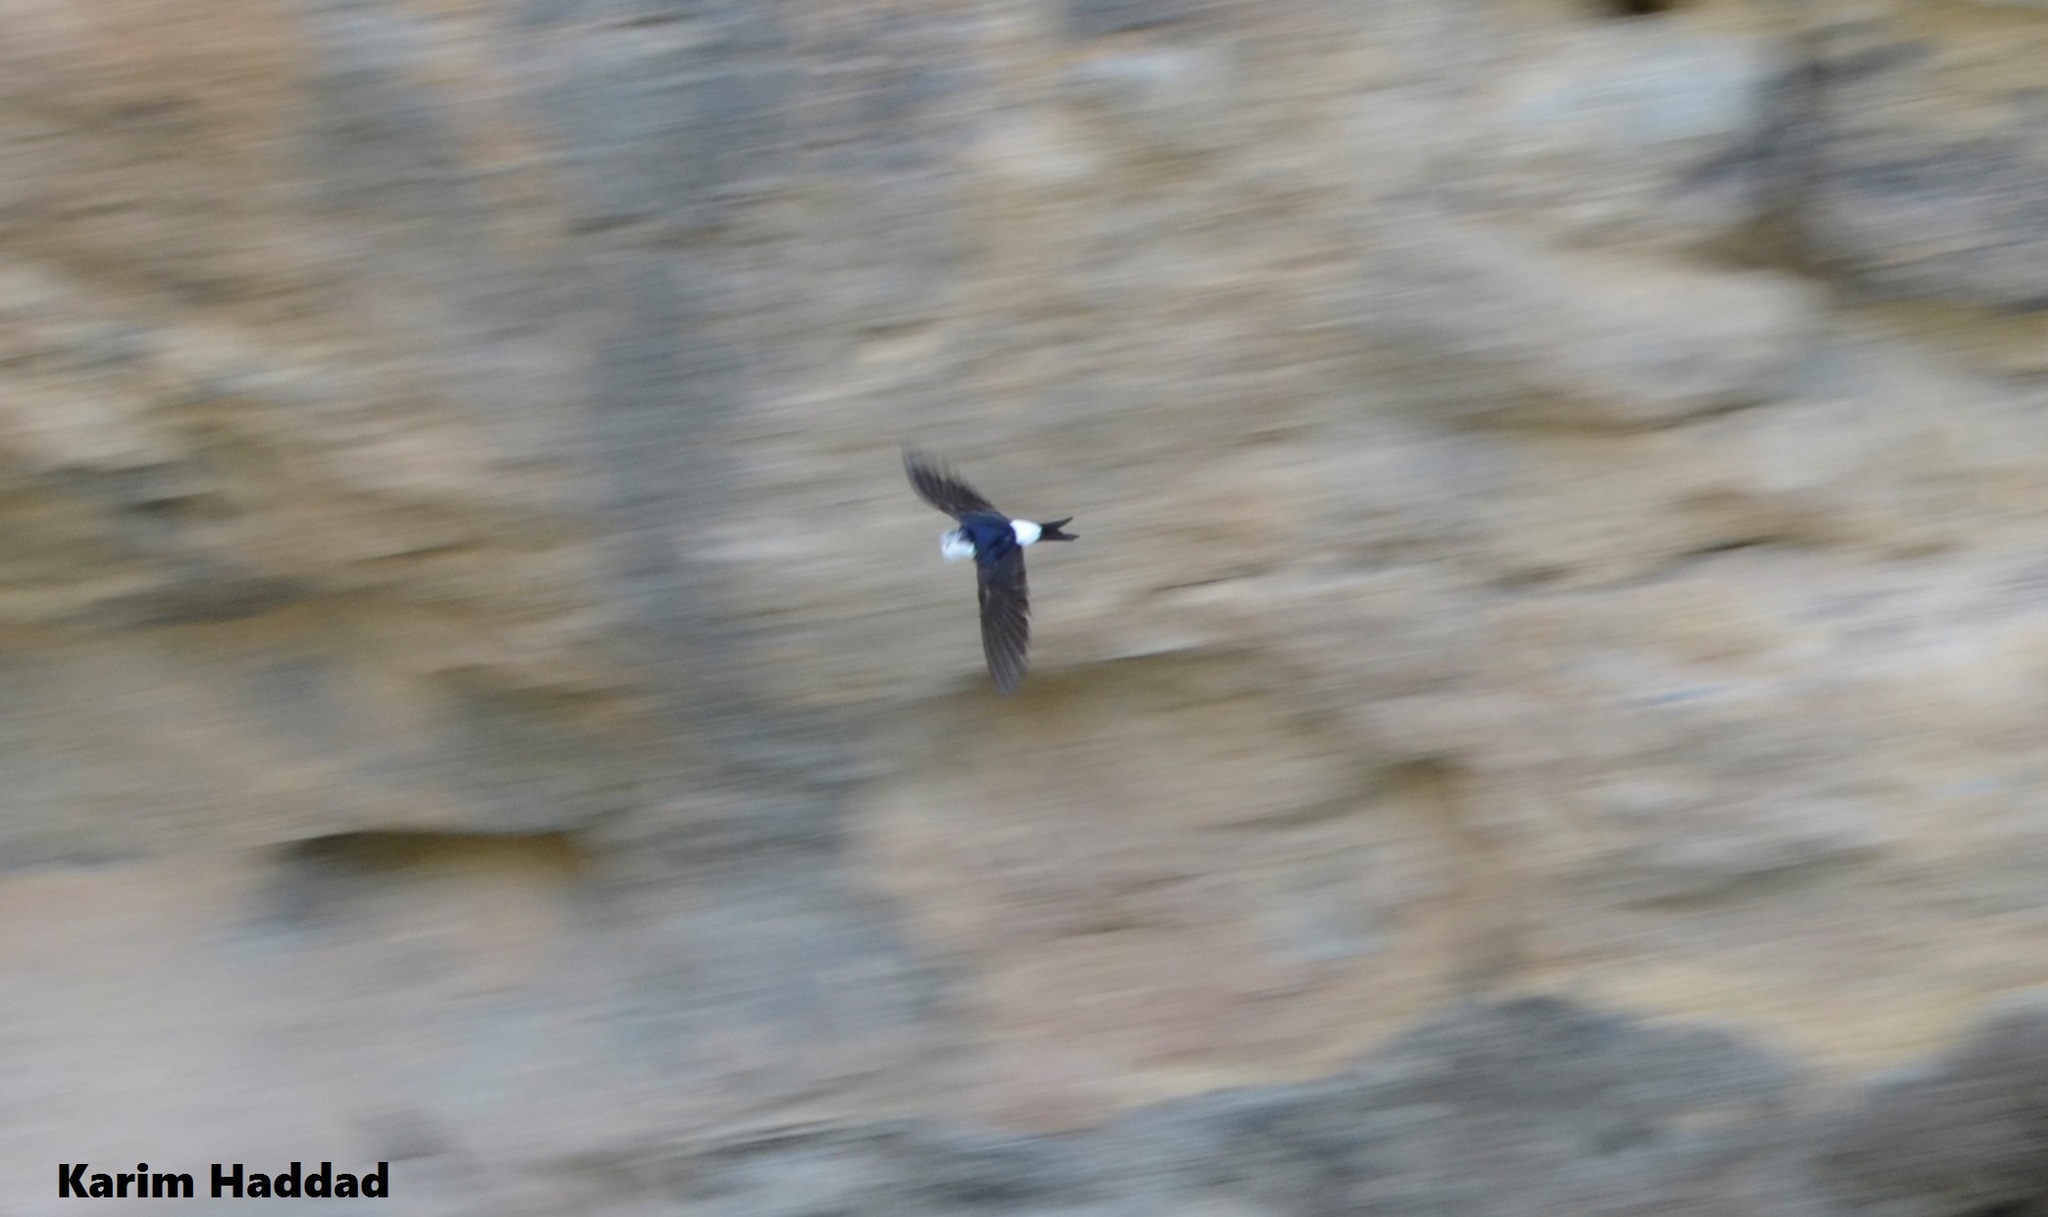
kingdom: Animalia
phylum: Chordata
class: Aves
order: Passeriformes
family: Hirundinidae
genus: Delichon
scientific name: Delichon urbicum
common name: Common house martin
